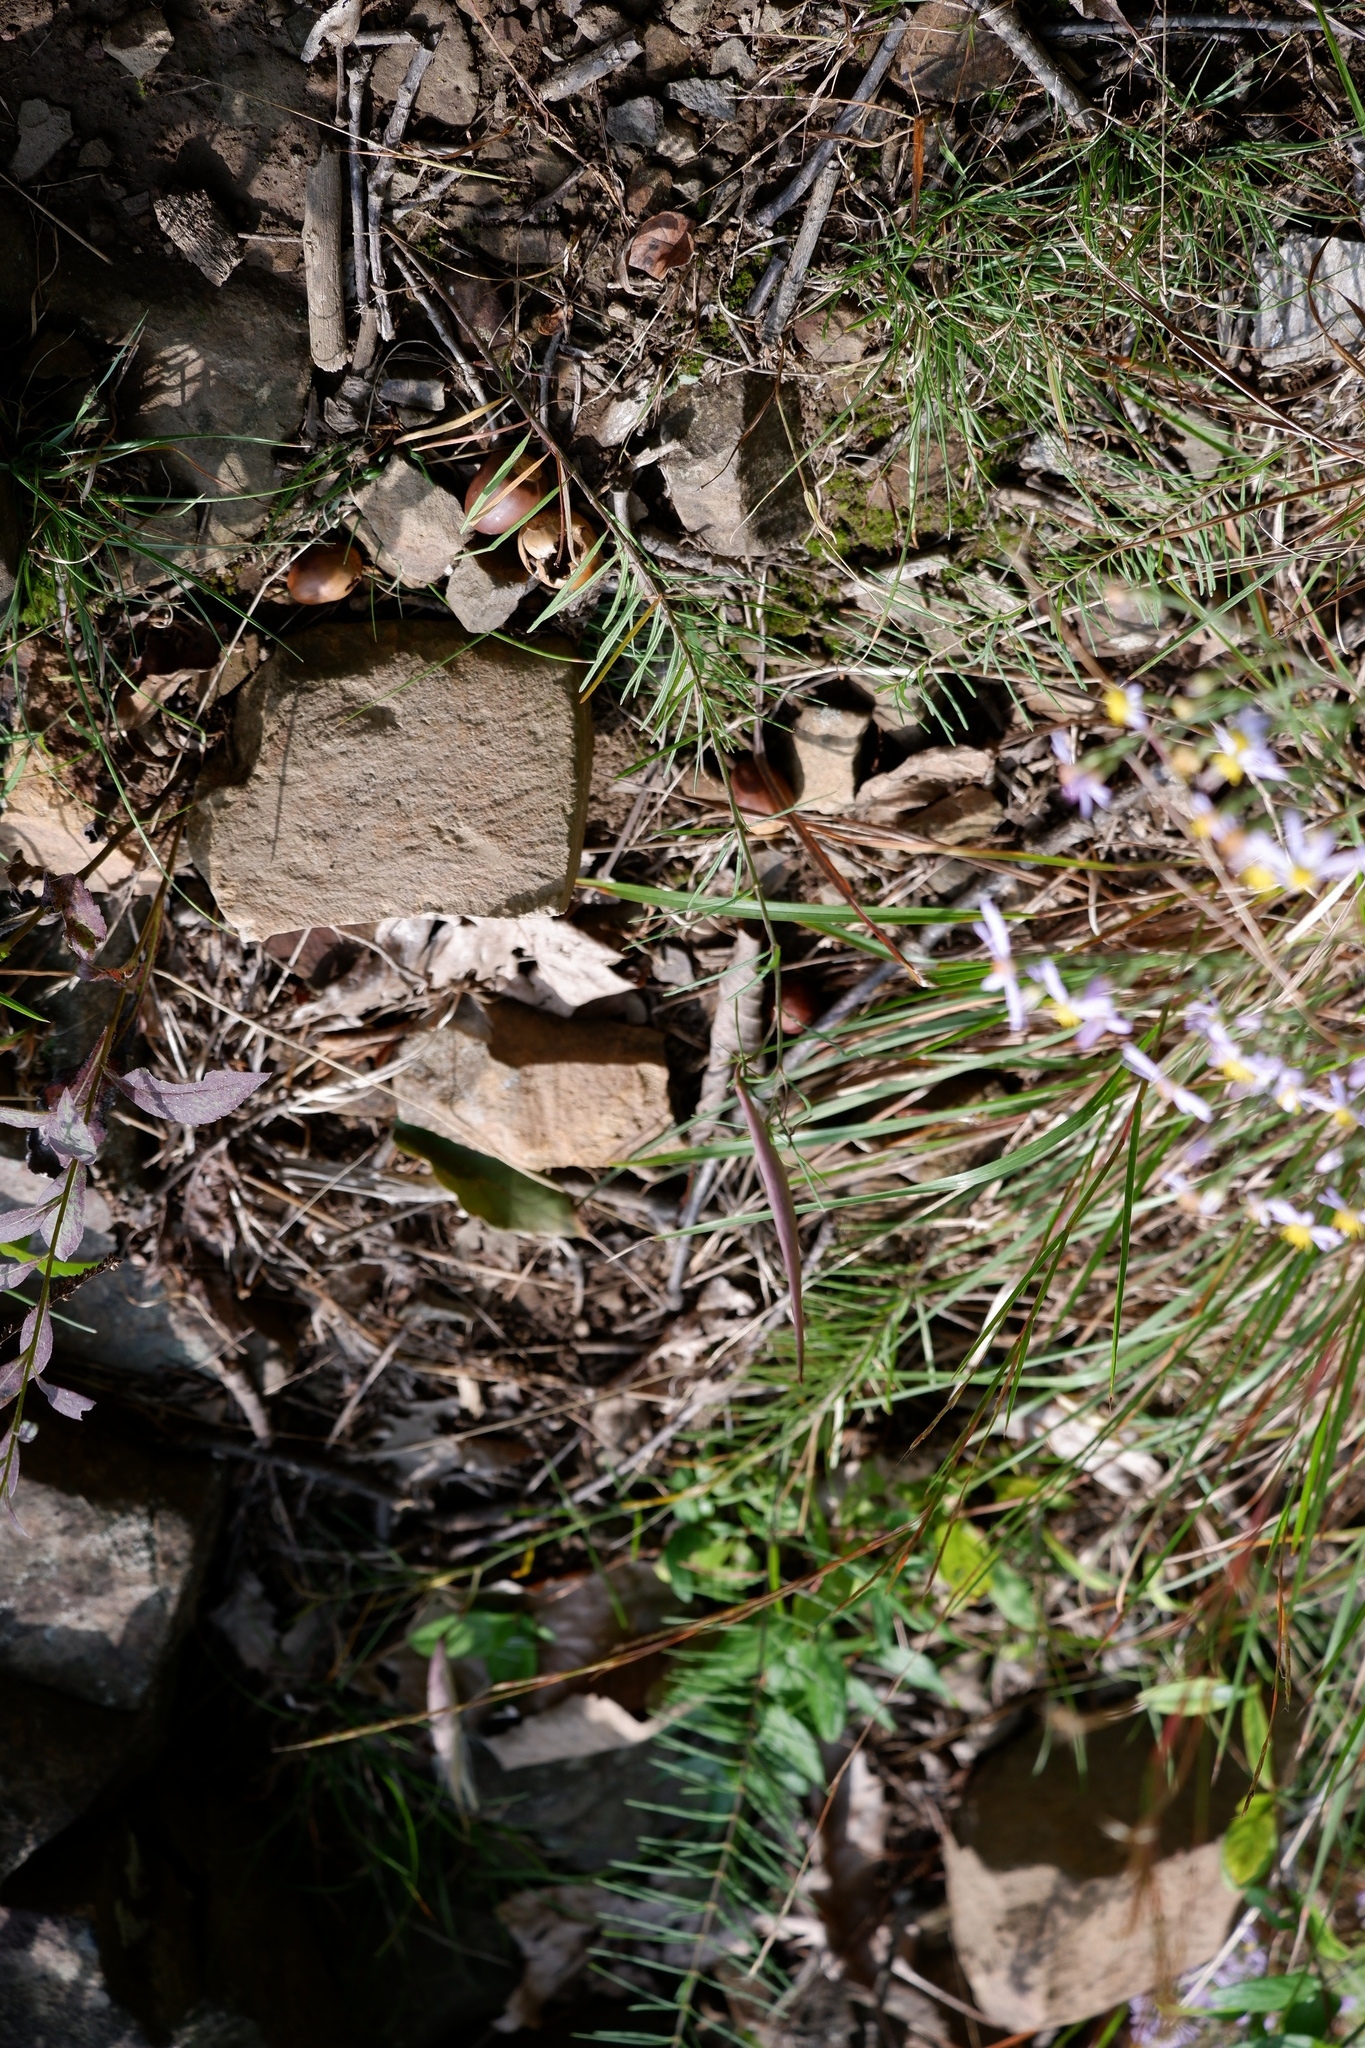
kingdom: Plantae
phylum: Tracheophyta
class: Magnoliopsida
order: Gentianales
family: Apocynaceae
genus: Asclepias
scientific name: Asclepias verticillata
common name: Eastern whorled milkweed
